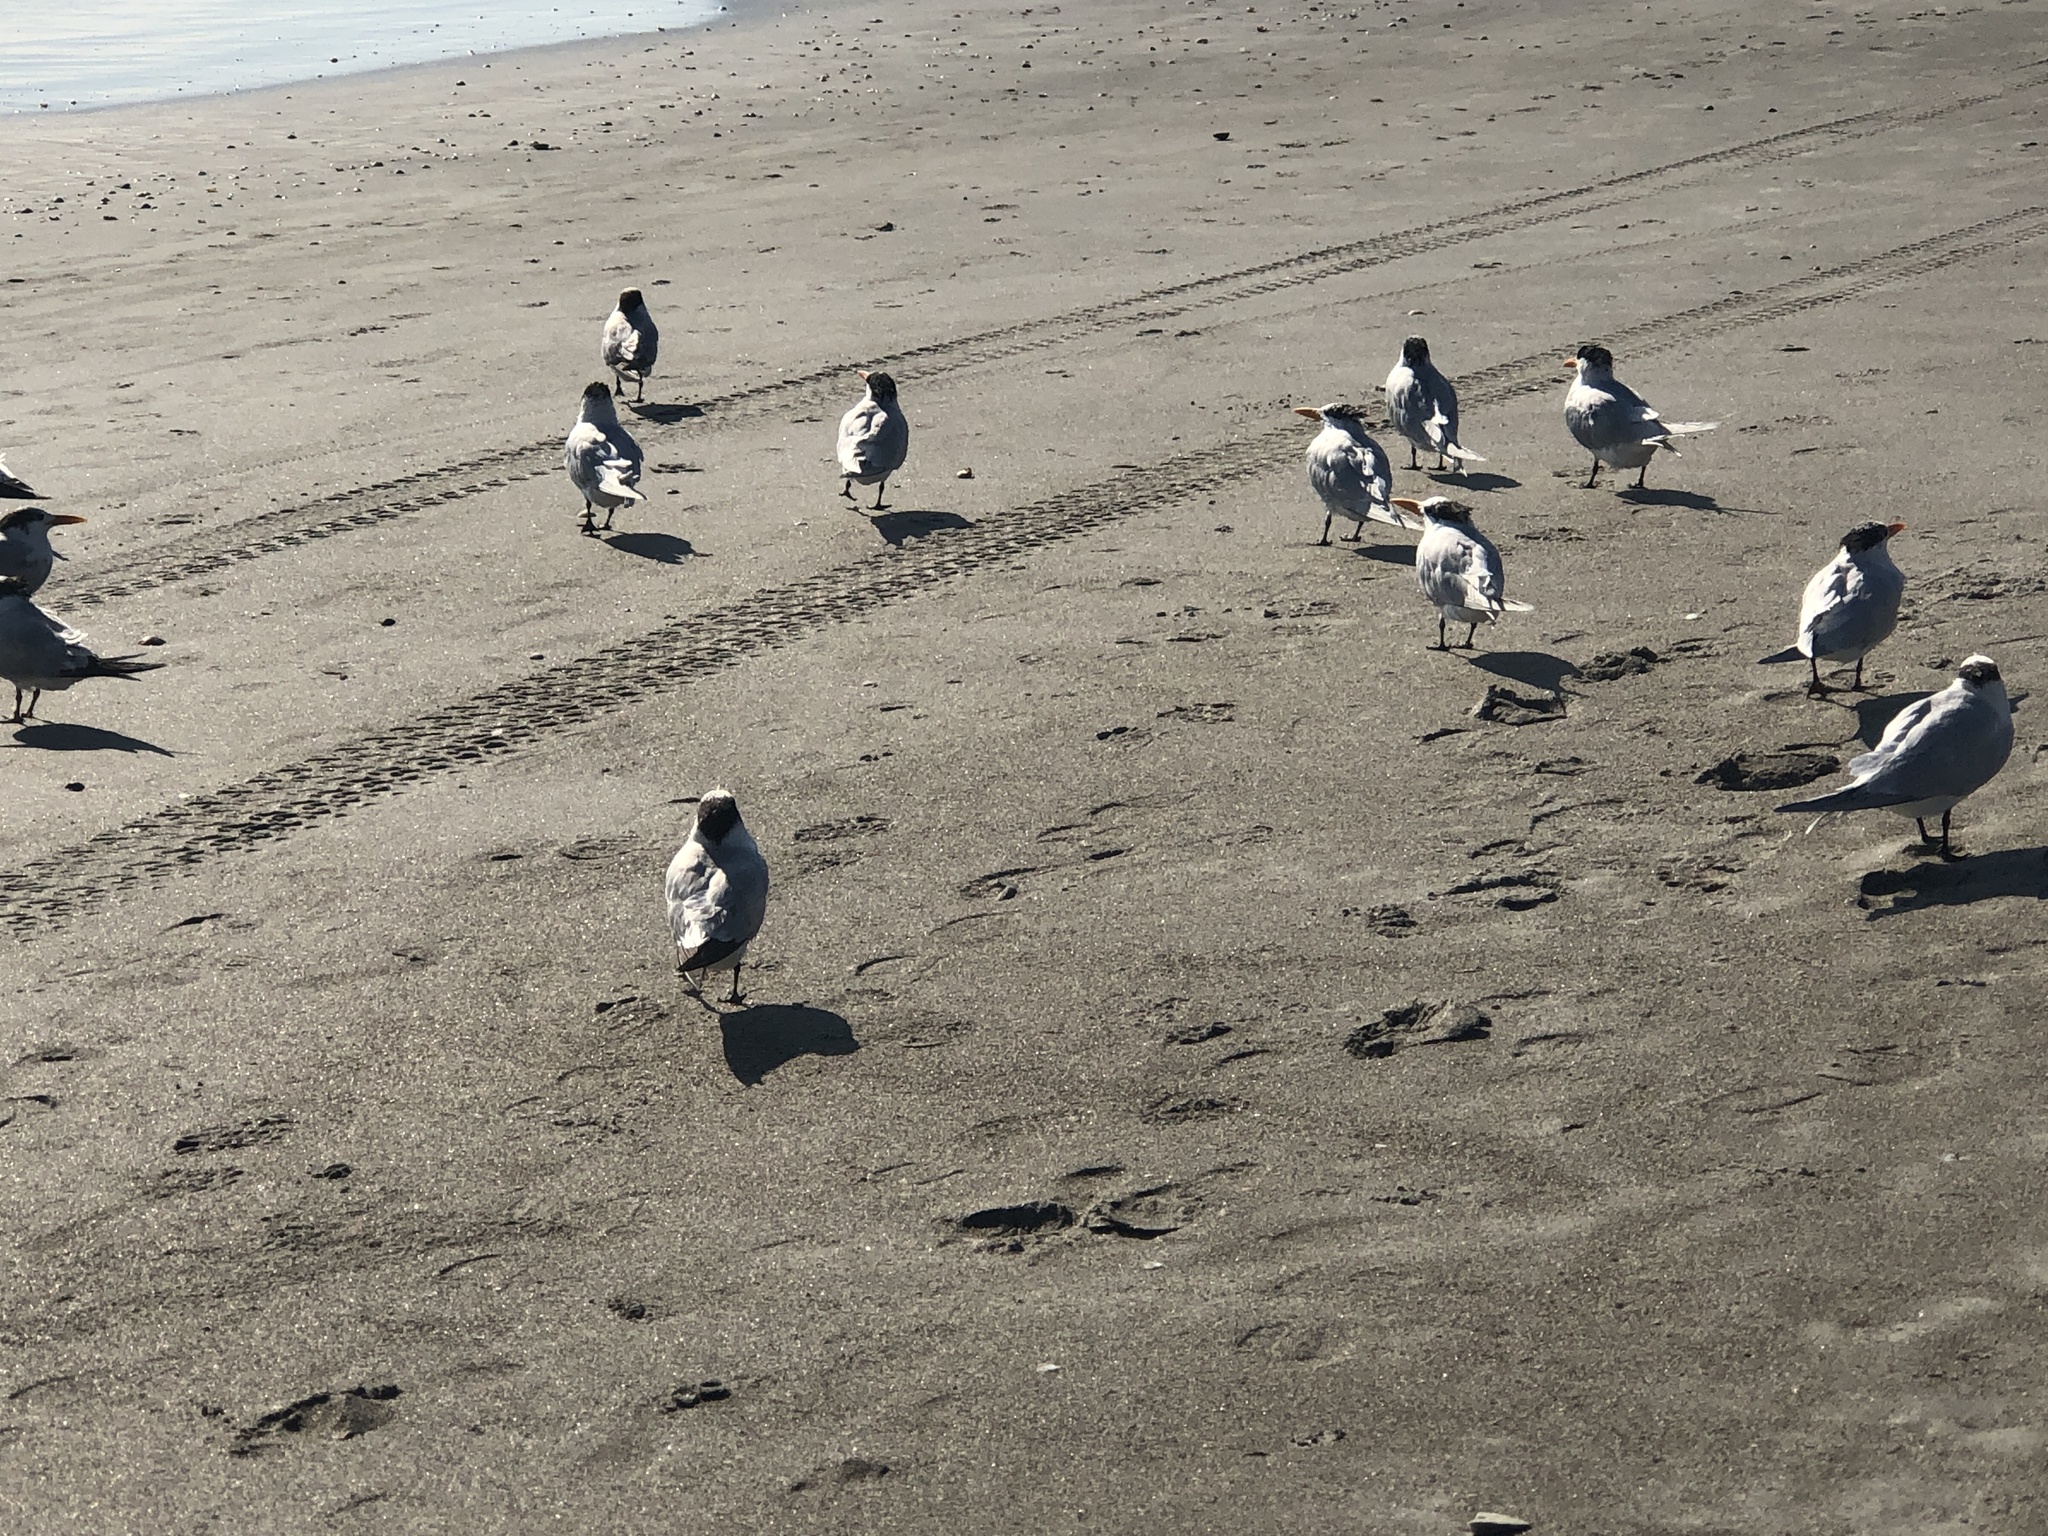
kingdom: Animalia
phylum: Chordata
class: Aves
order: Charadriiformes
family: Laridae
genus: Thalasseus
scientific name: Thalasseus maximus
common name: Royal tern
